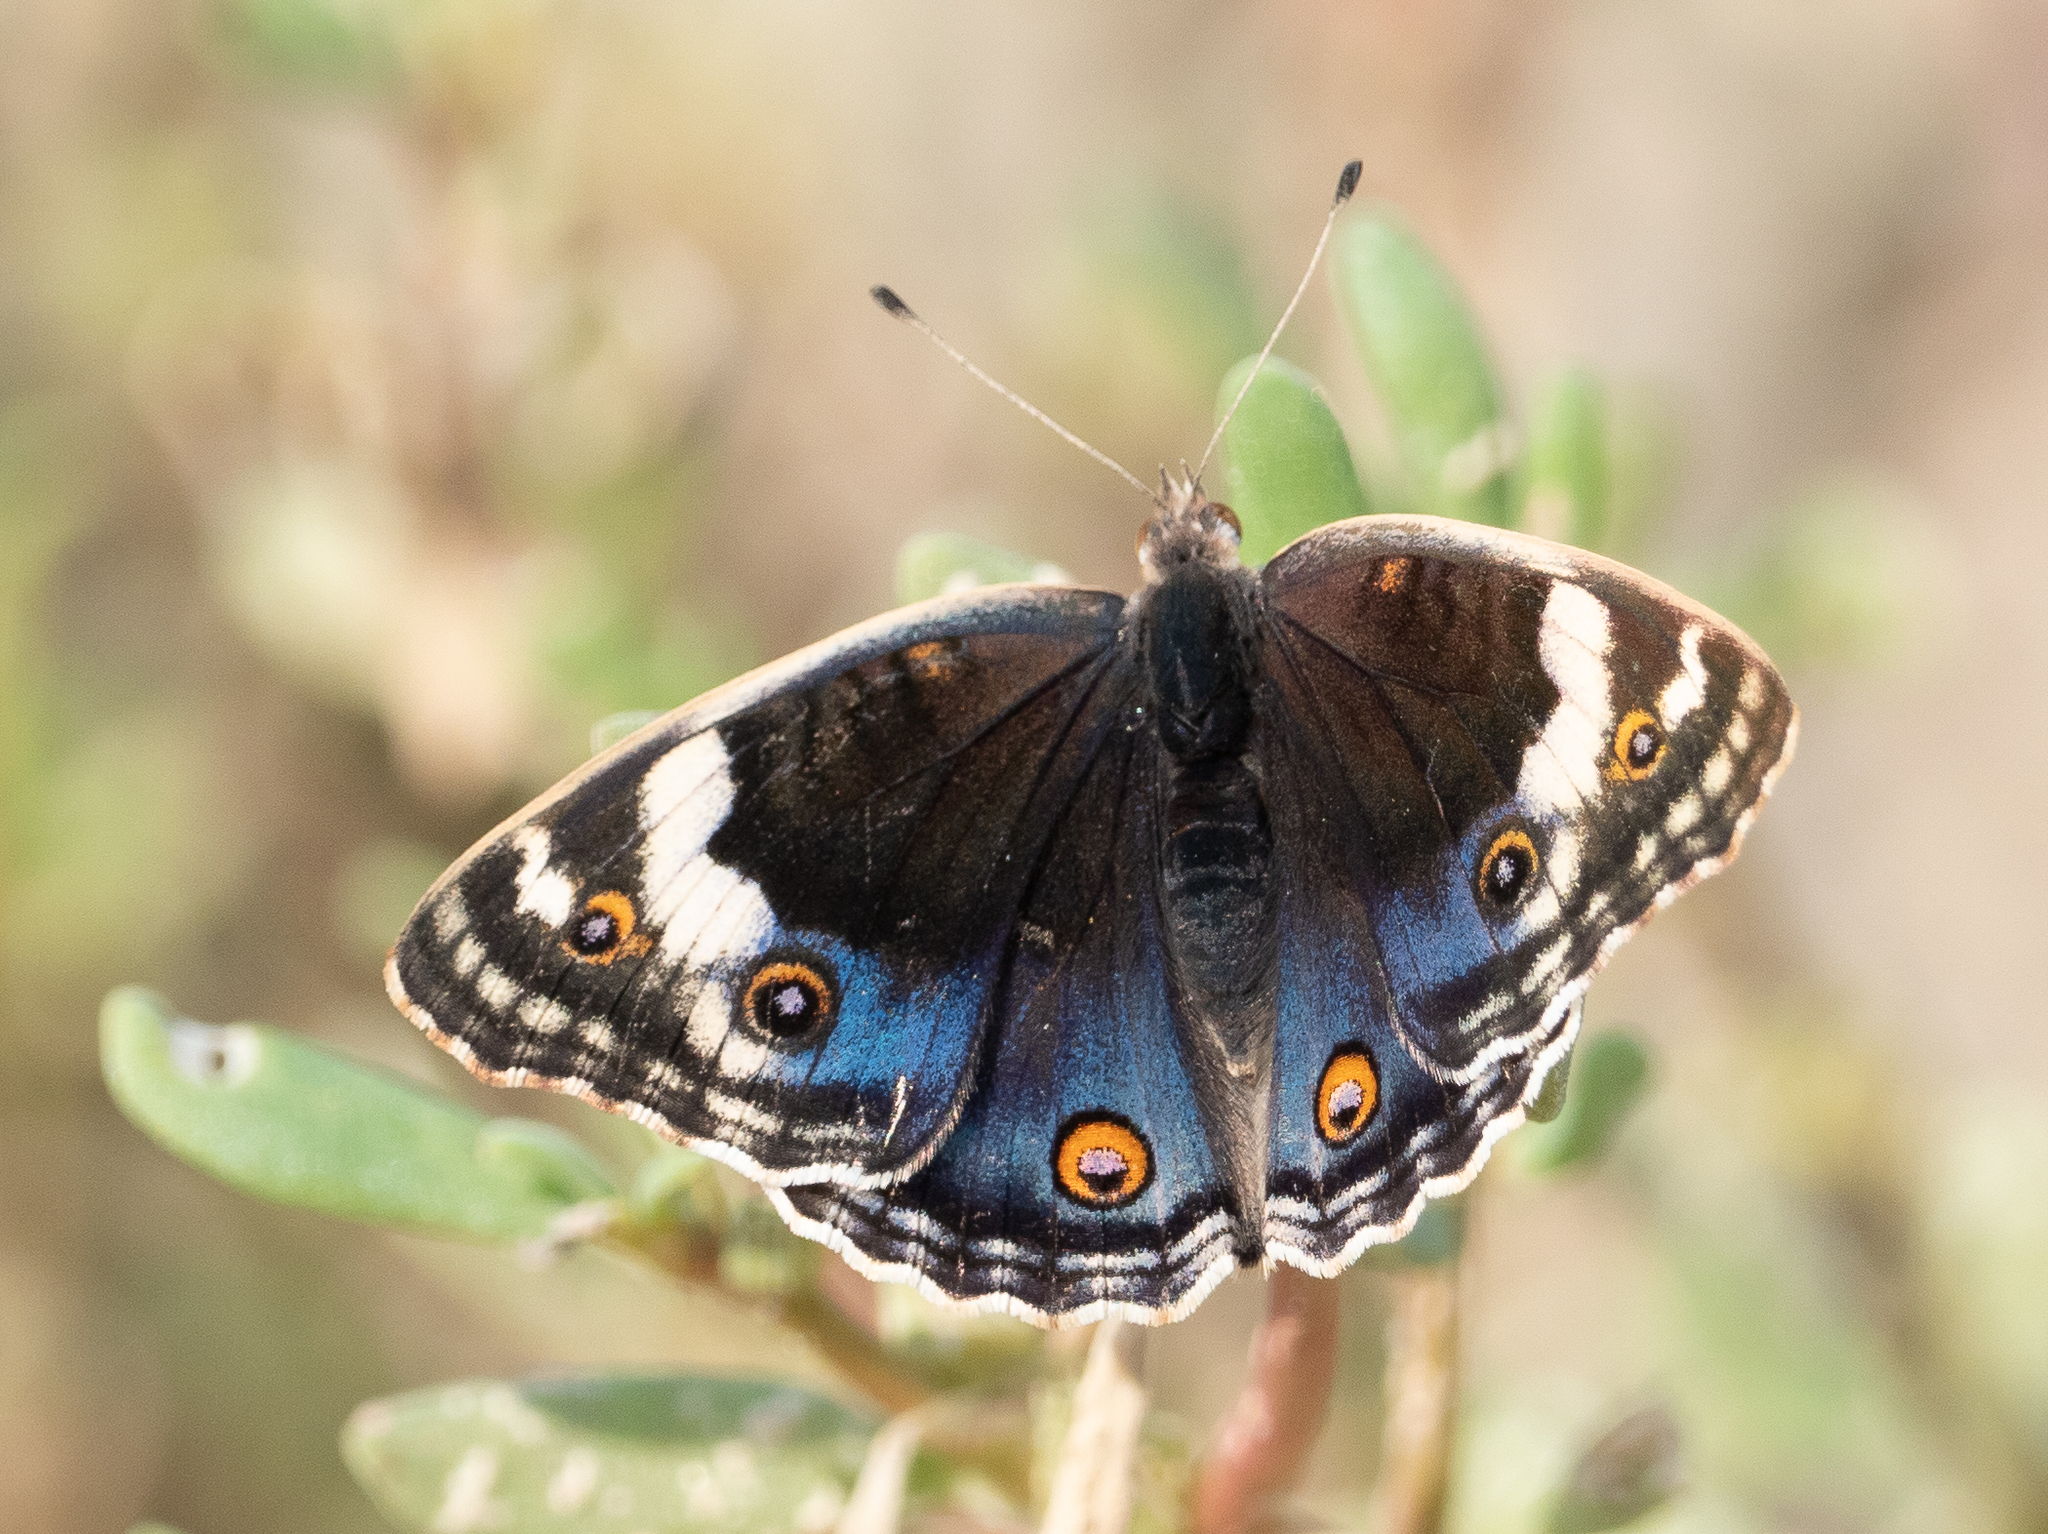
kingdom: Animalia
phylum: Arthropoda
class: Insecta
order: Lepidoptera
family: Nymphalidae
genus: Junonia
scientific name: Junonia orithya
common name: Blue pansy
